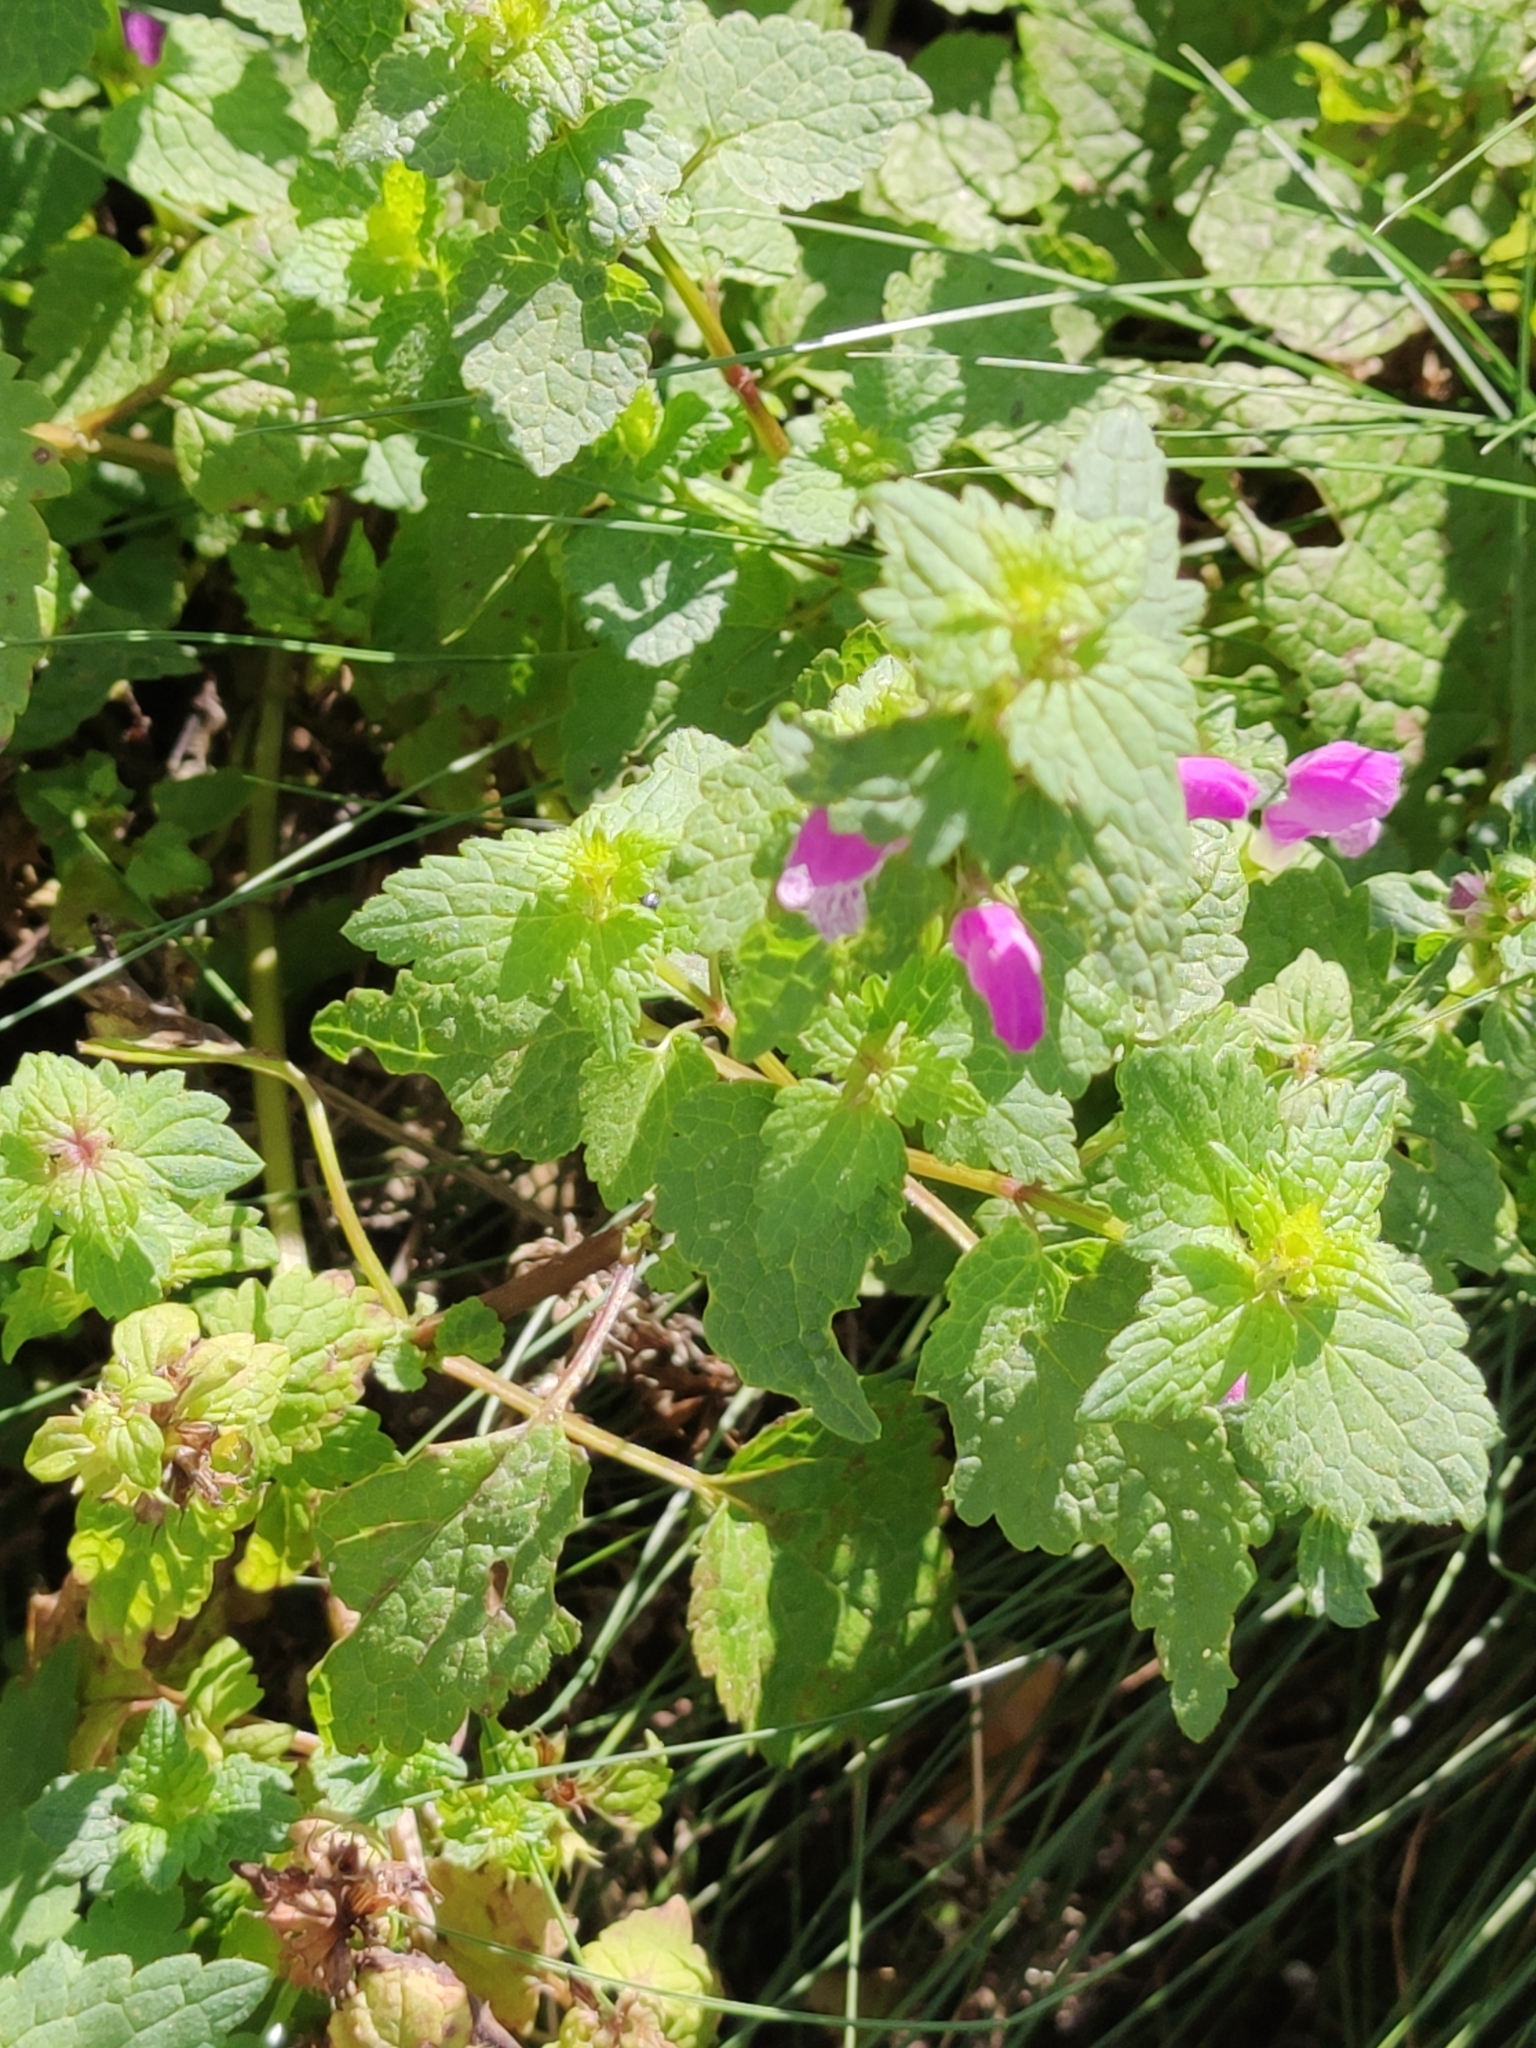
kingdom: Plantae
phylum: Tracheophyta
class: Magnoliopsida
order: Lamiales
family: Lamiaceae
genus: Lamium
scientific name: Lamium maculatum
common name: Spotted dead-nettle
